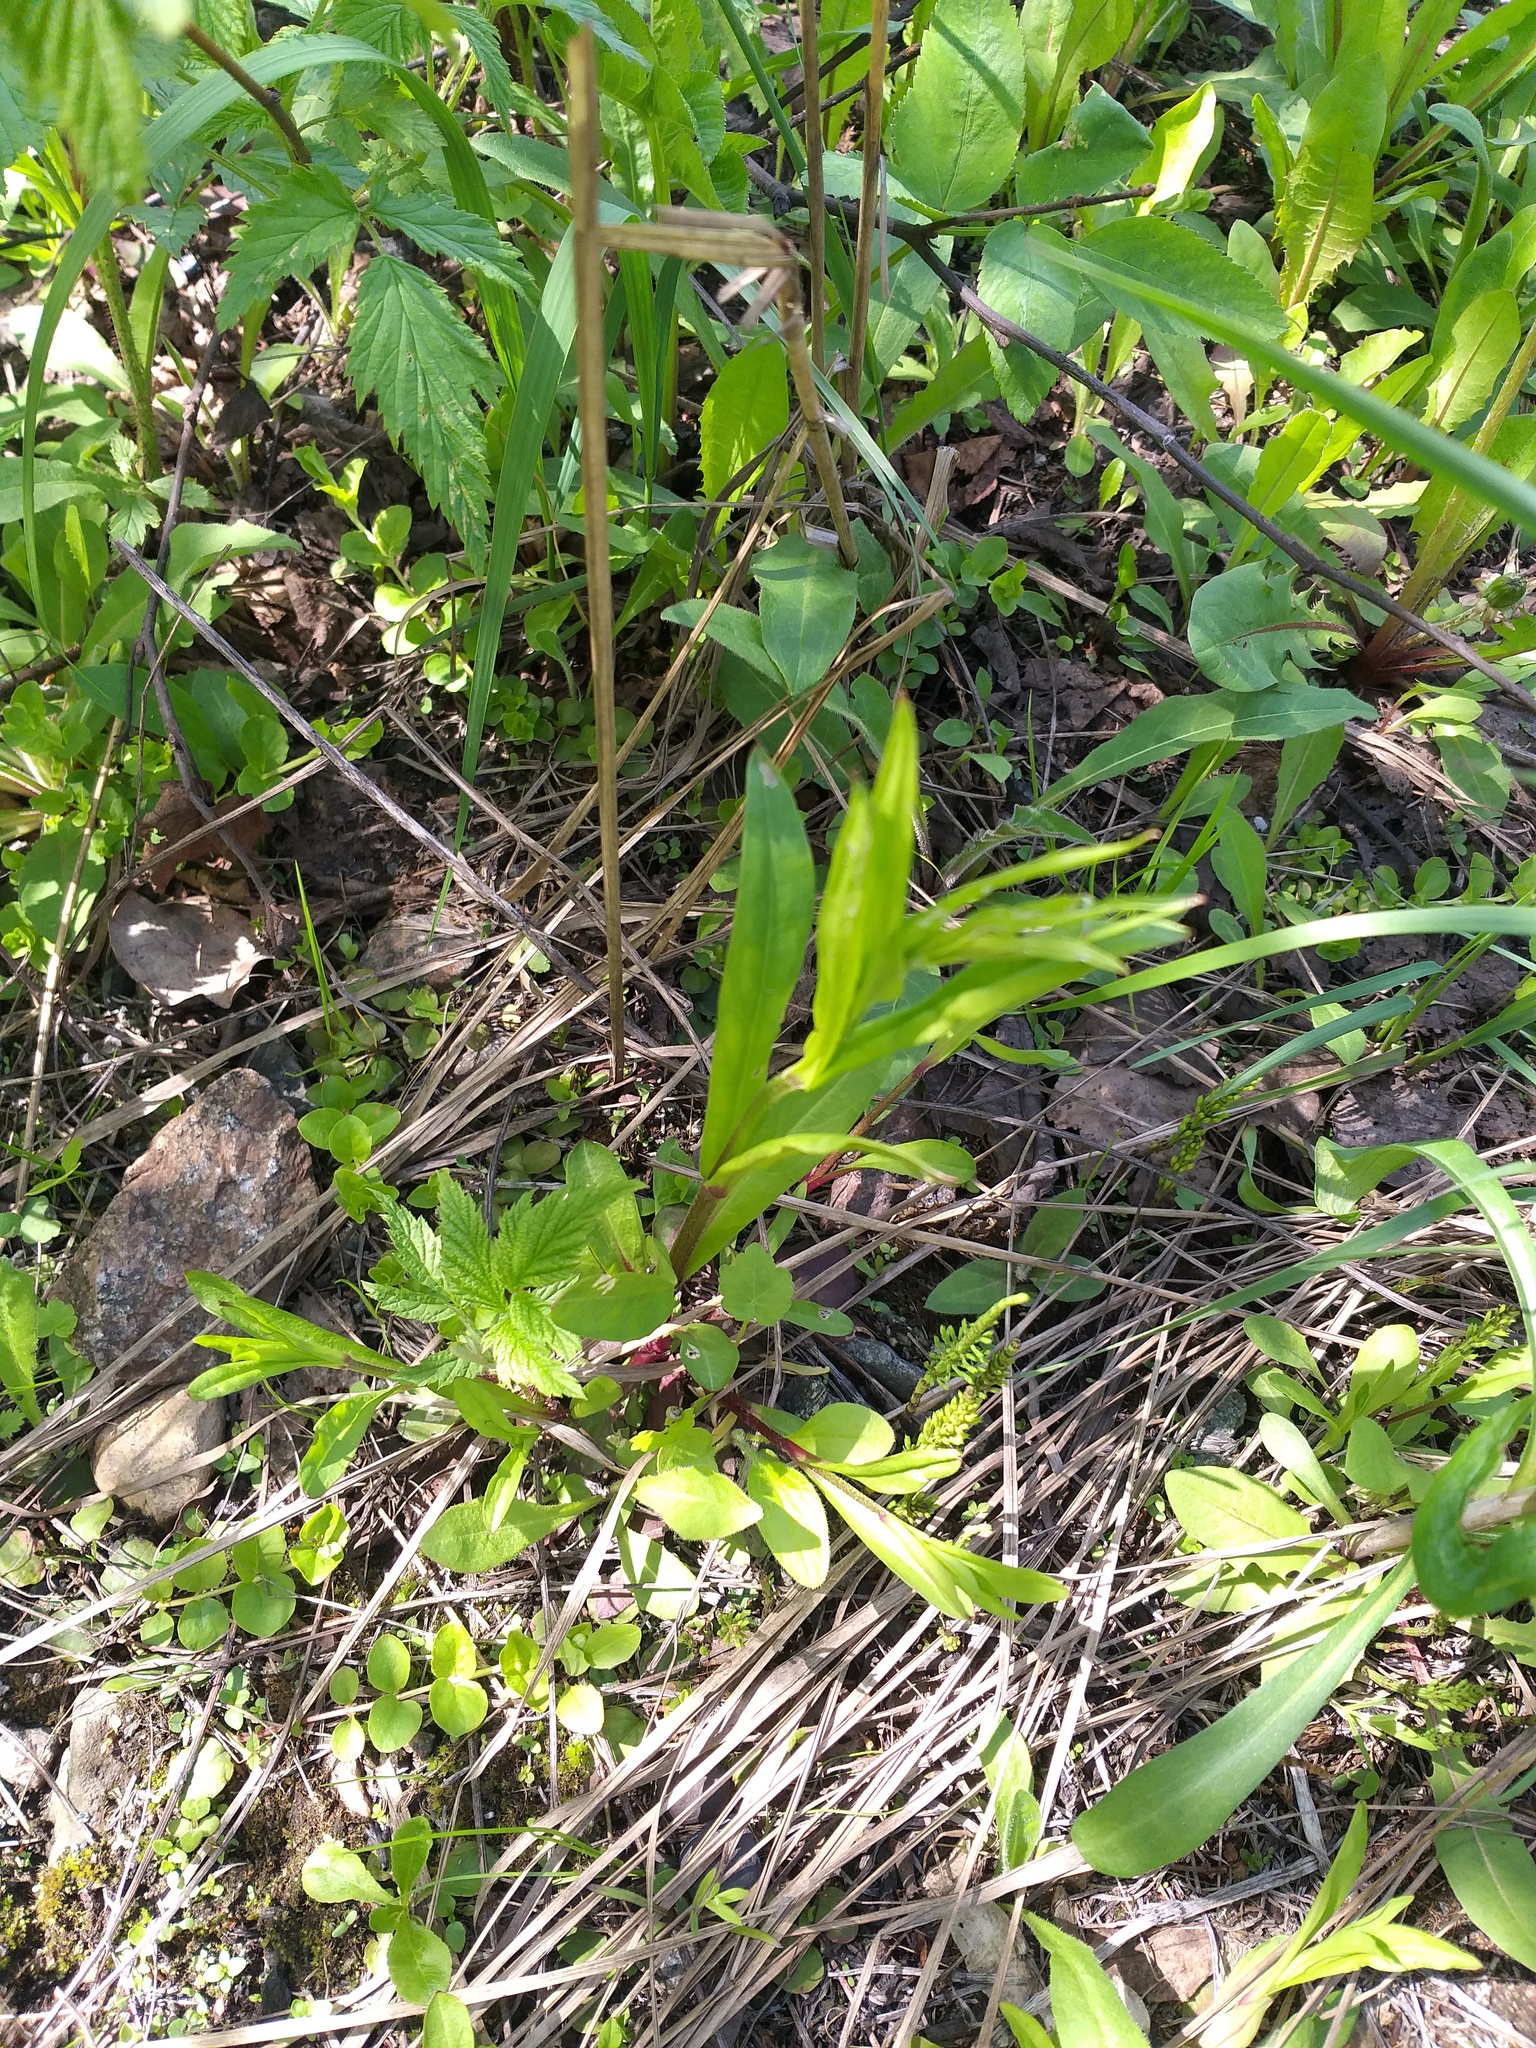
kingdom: Plantae
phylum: Tracheophyta
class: Magnoliopsida
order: Caryophyllales
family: Caryophyllaceae
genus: Silene
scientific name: Silene flos-cuculi
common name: Ragged-robin
